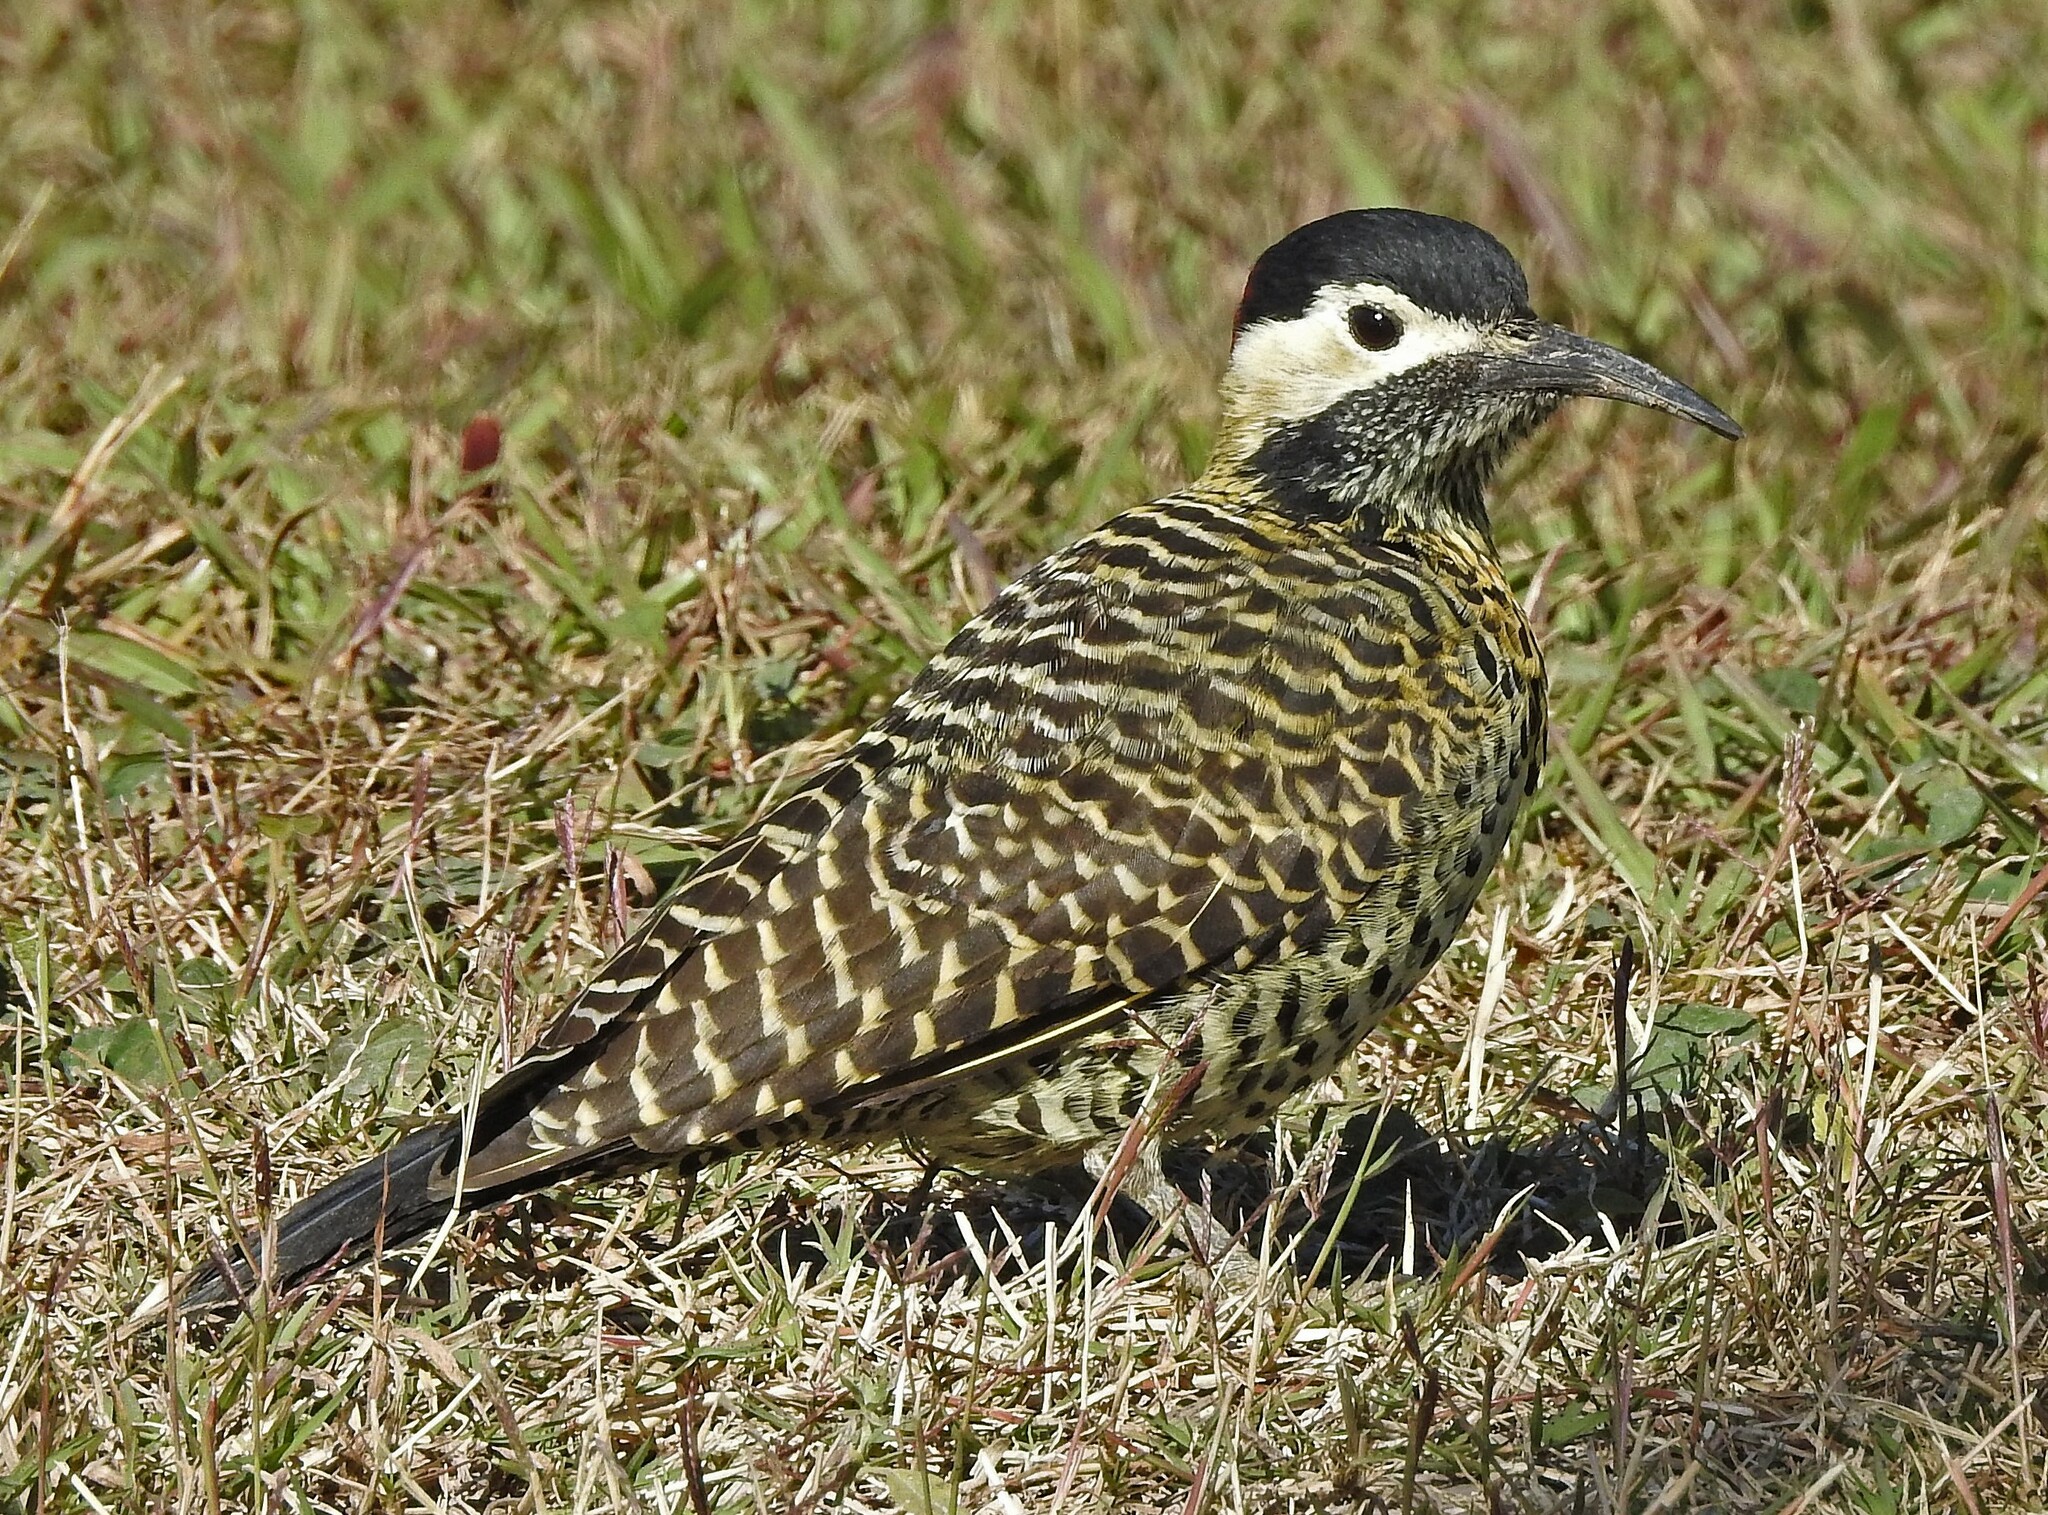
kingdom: Animalia
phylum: Chordata
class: Aves
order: Piciformes
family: Picidae
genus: Colaptes
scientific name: Colaptes melanochloros
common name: Green-barred woodpecker
